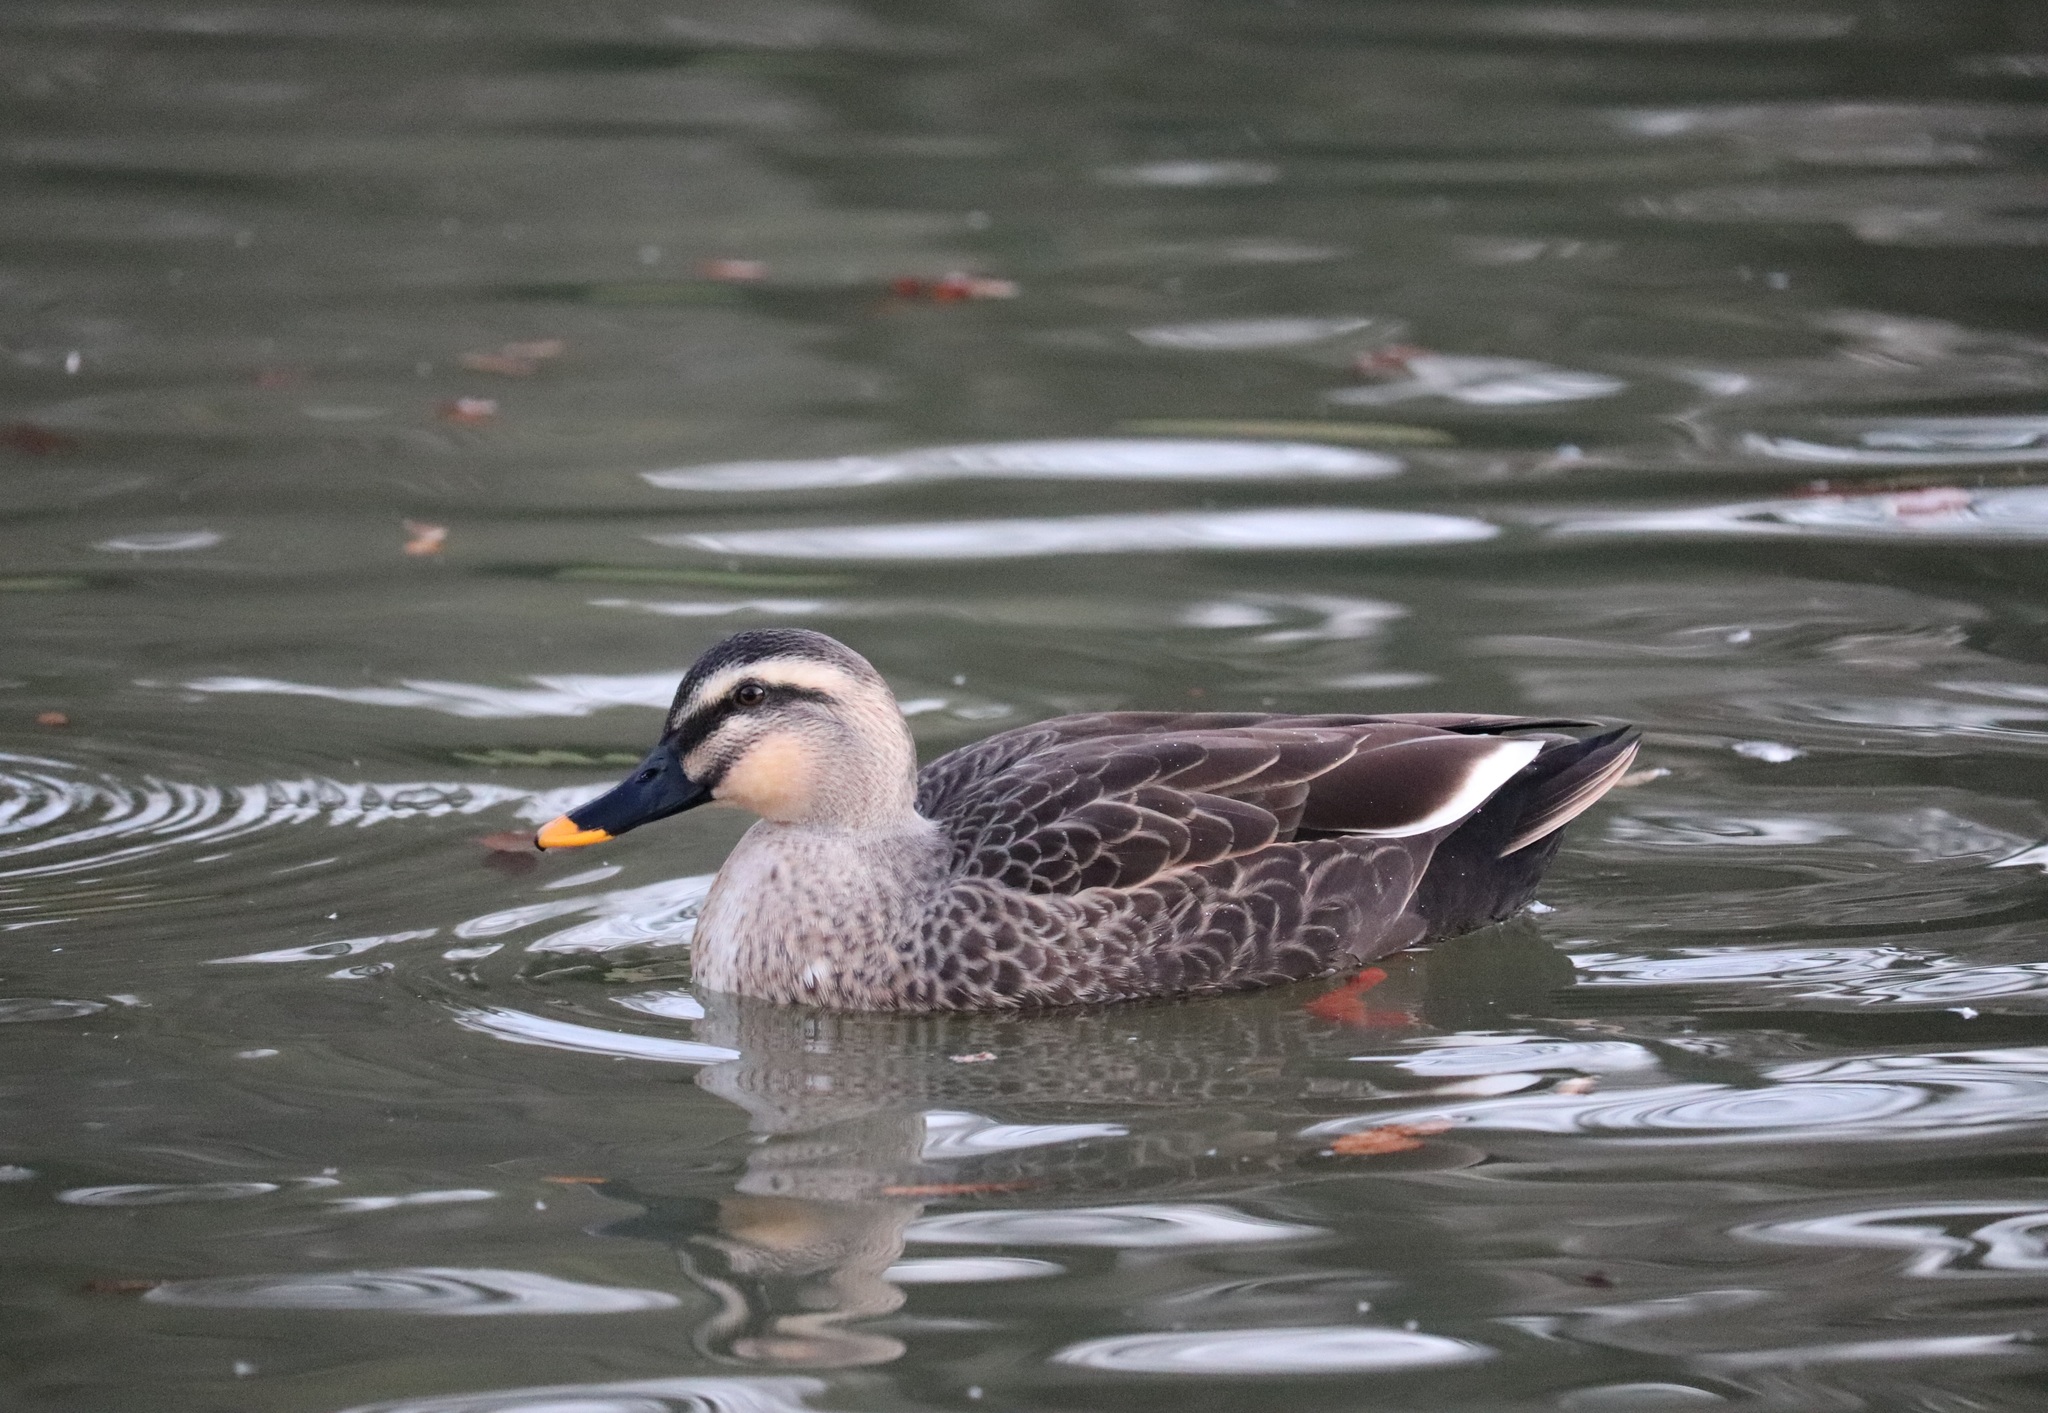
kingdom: Animalia
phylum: Chordata
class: Aves
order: Anseriformes
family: Anatidae
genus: Anas
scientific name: Anas zonorhyncha
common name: Eastern spot-billed duck
